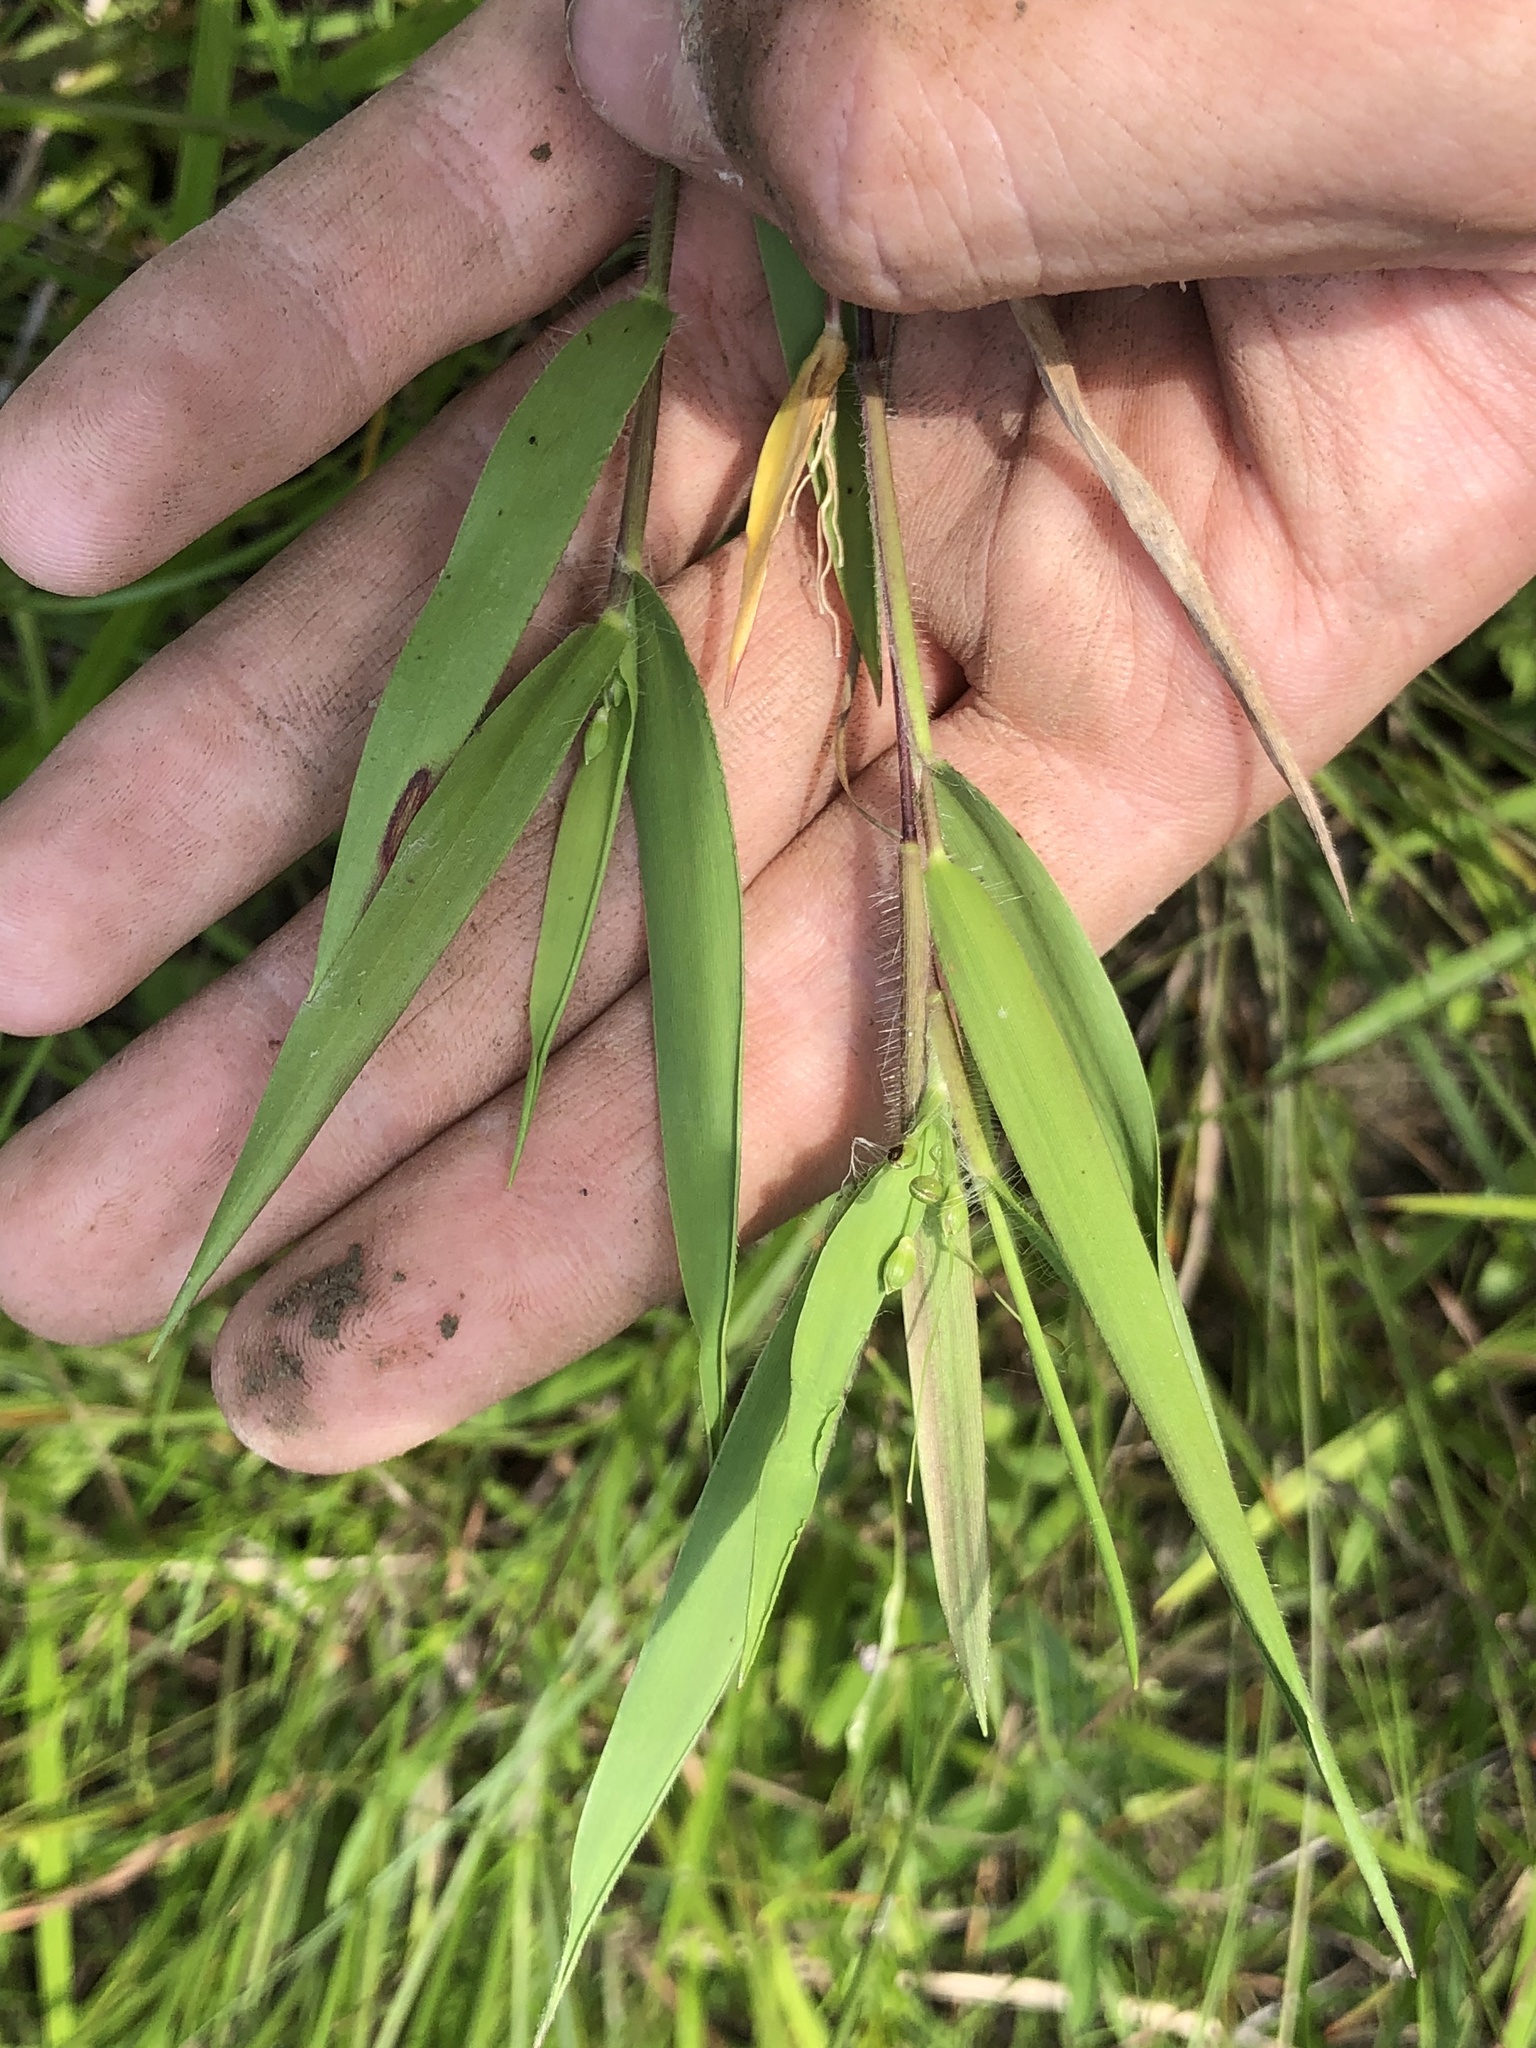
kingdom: Plantae
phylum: Tracheophyta
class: Liliopsida
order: Poales
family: Poaceae
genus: Dichanthelium
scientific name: Dichanthelium scribnerianum
